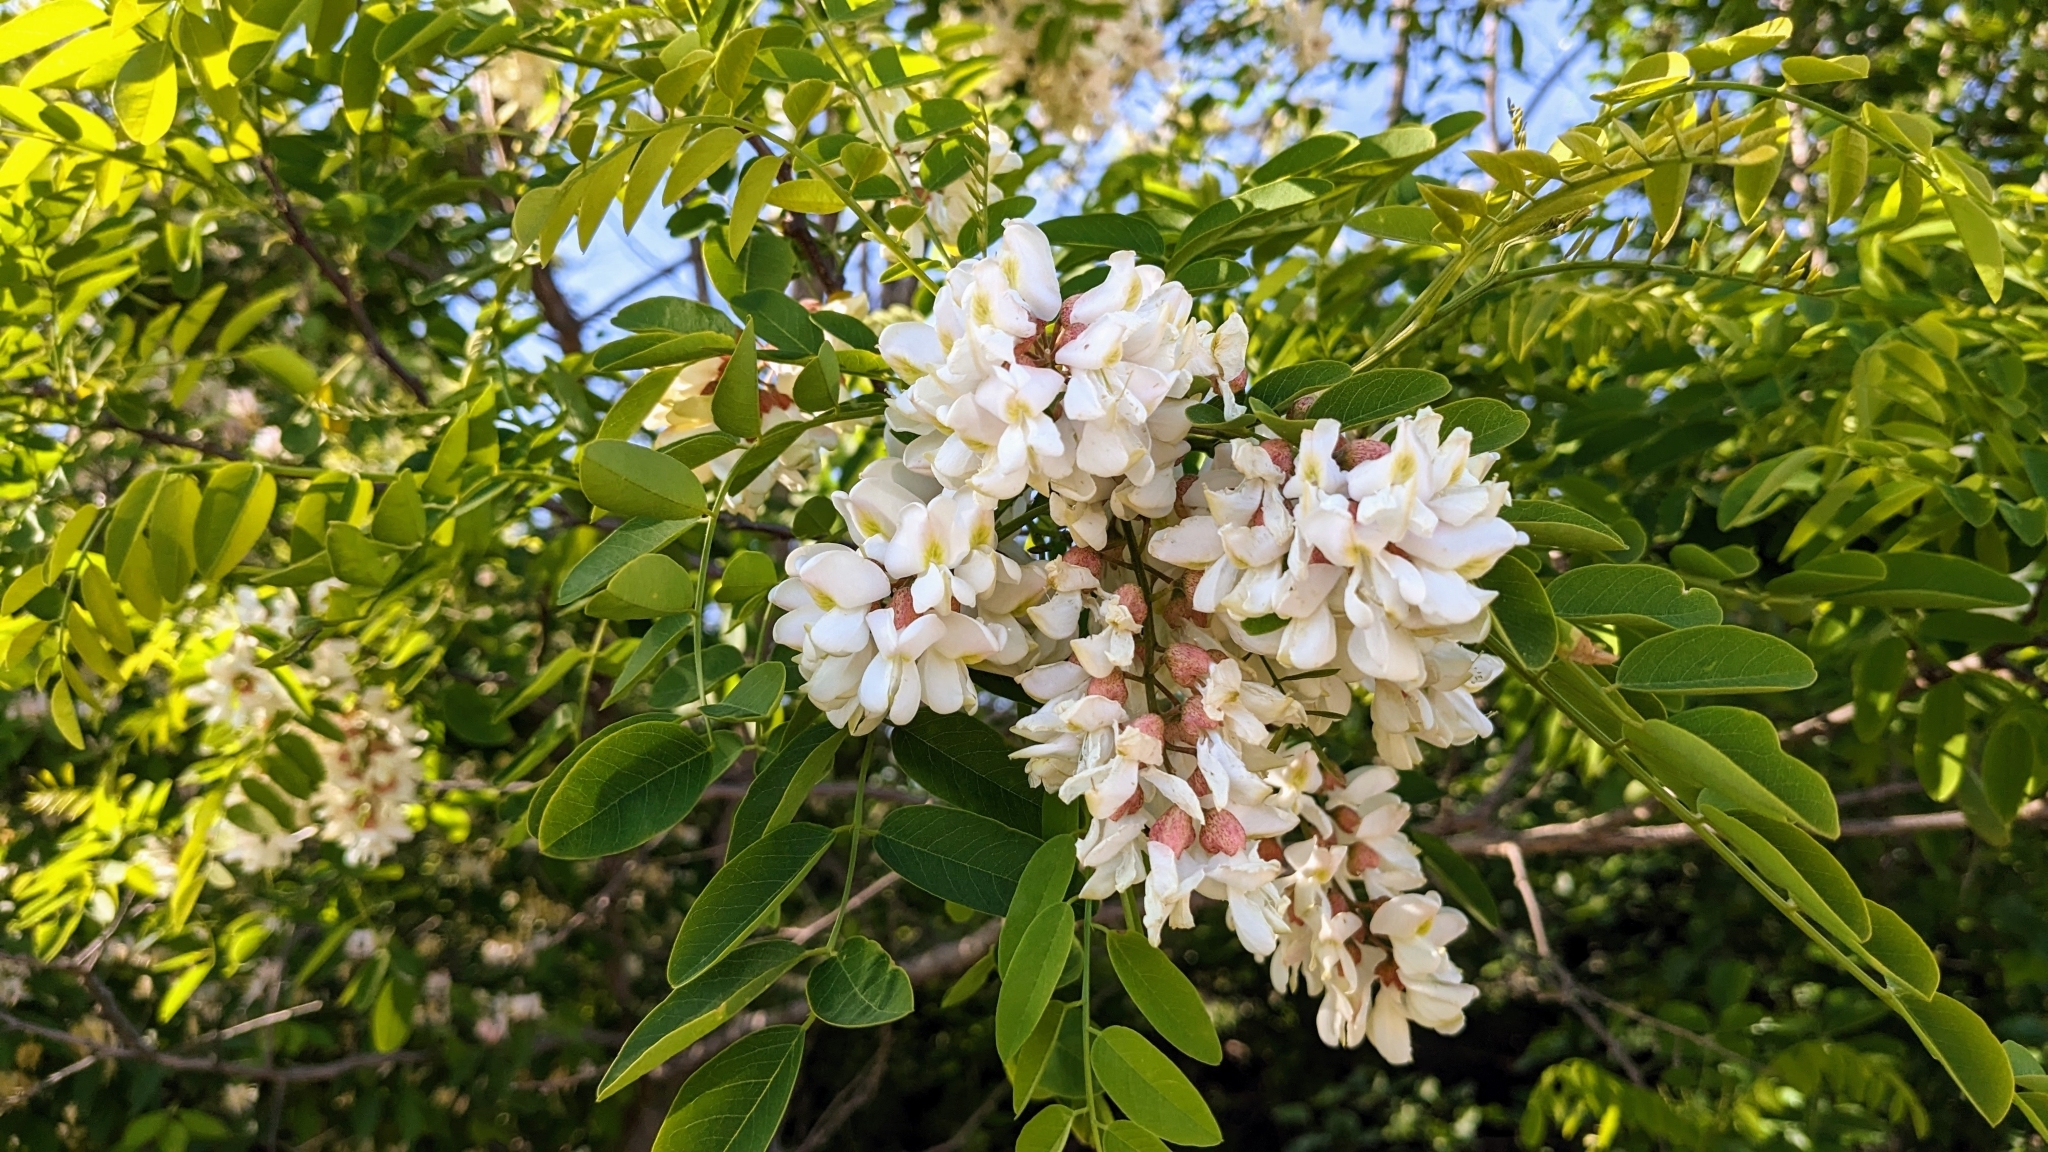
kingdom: Plantae
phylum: Tracheophyta
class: Magnoliopsida
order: Fabales
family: Fabaceae
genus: Robinia
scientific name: Robinia pseudoacacia
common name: Black locust
